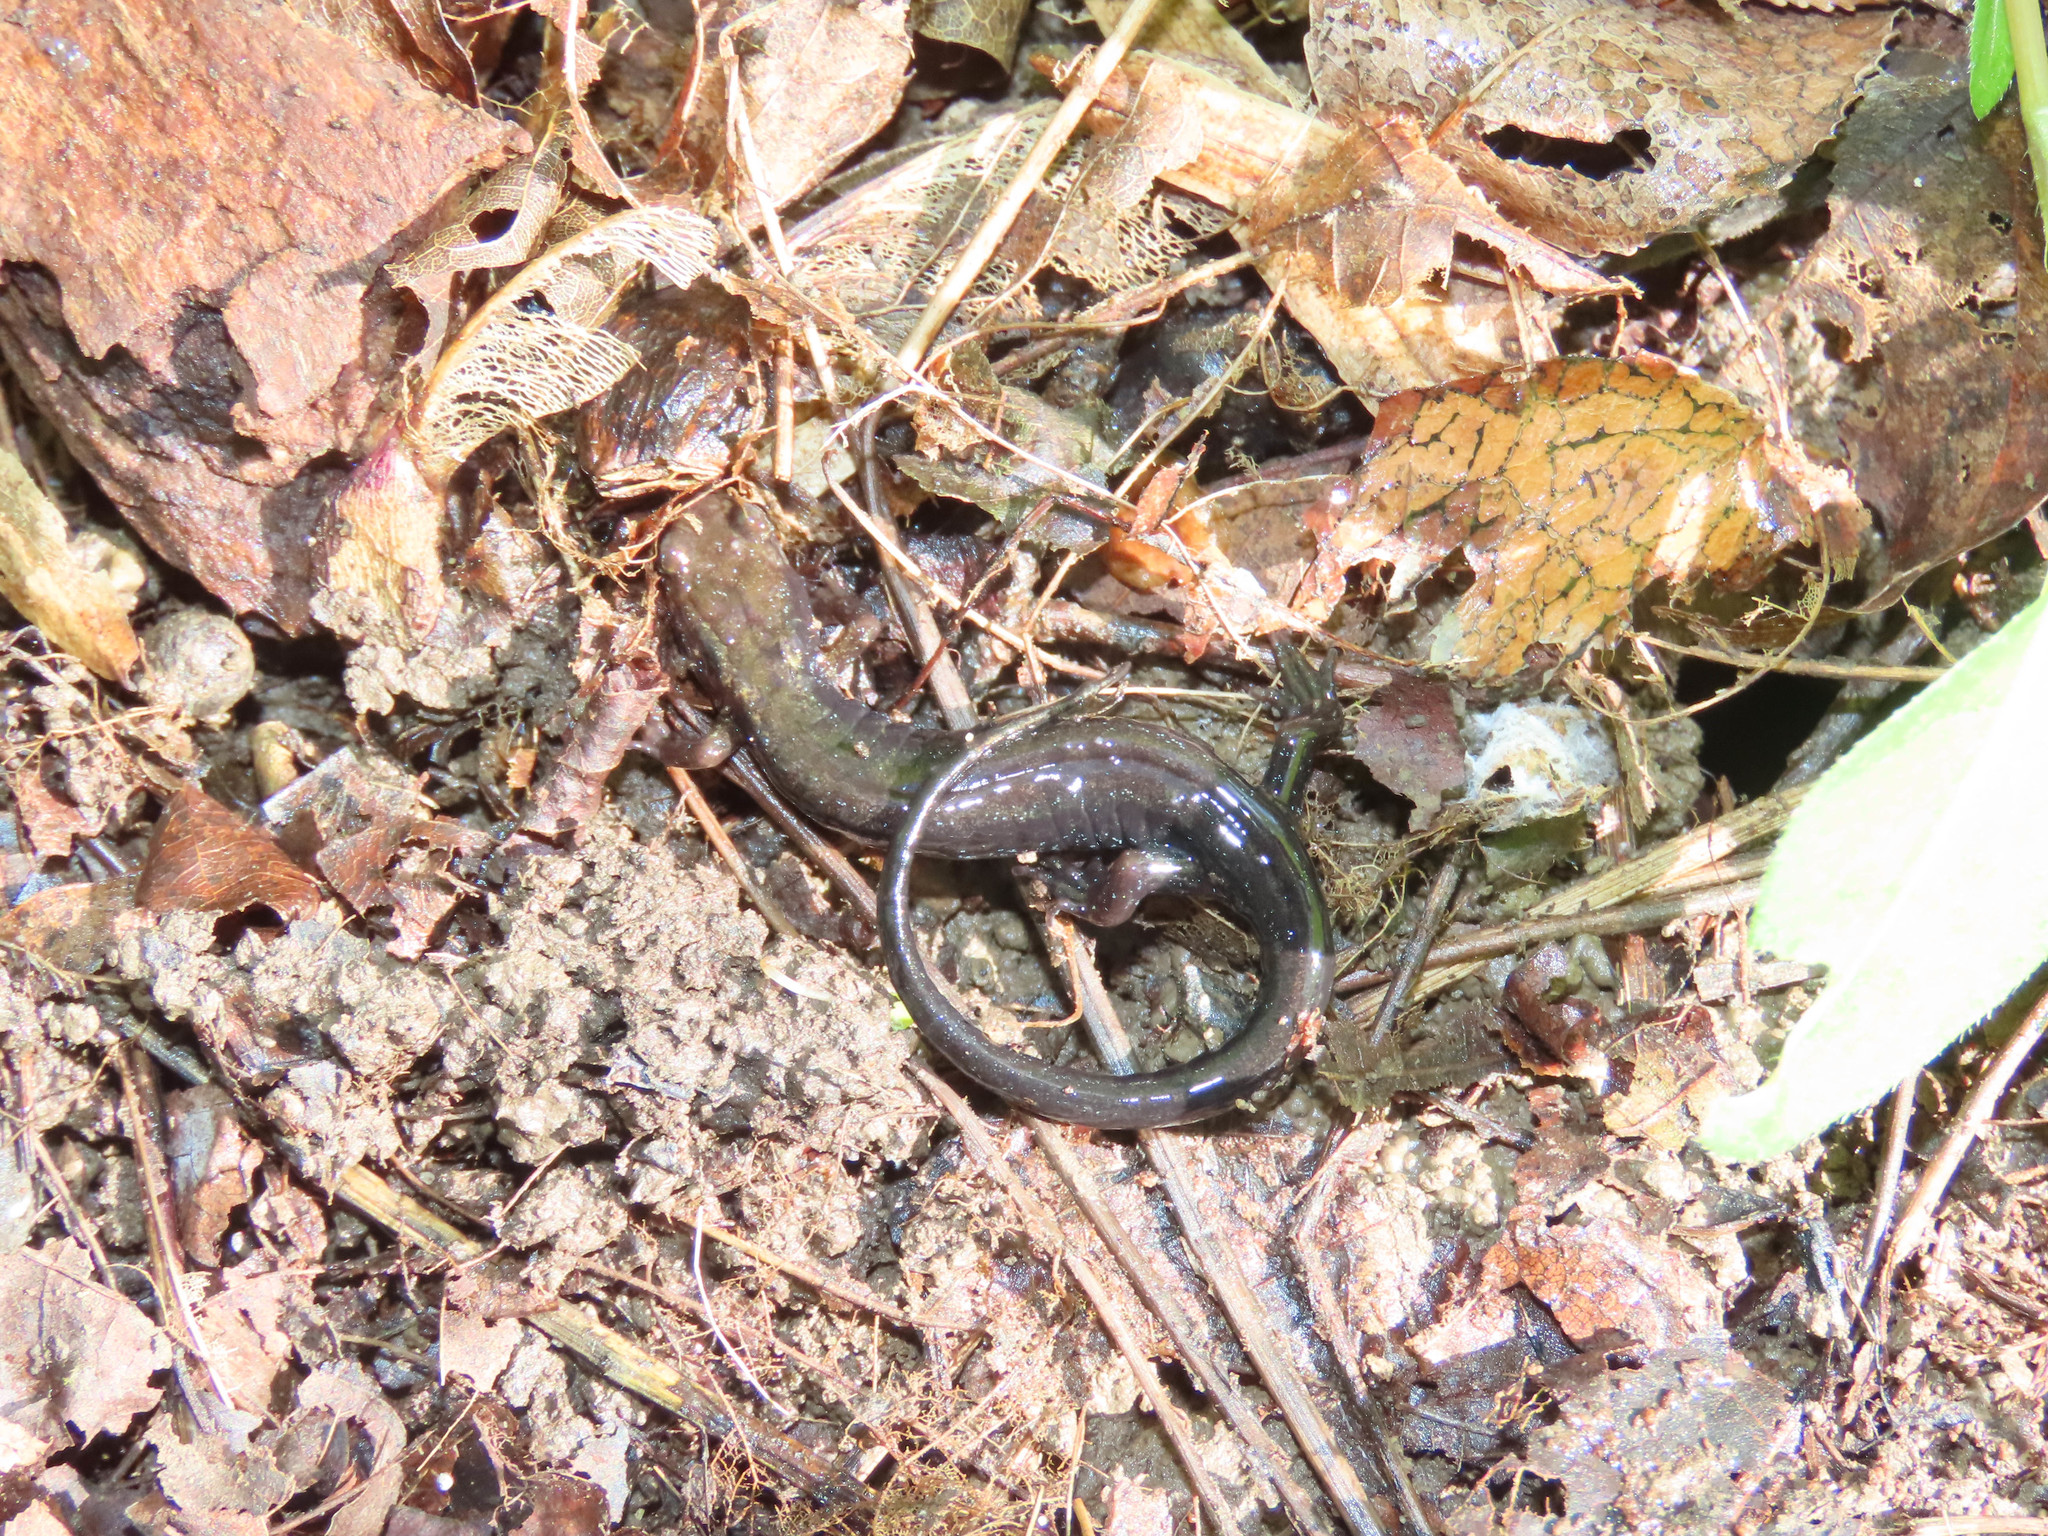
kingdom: Animalia
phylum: Chordata
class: Amphibia
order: Caudata
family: Plethodontidae
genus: Desmognathus
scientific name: Desmognathus ochrophaeus
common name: Allegheny mountain dusky salamander
